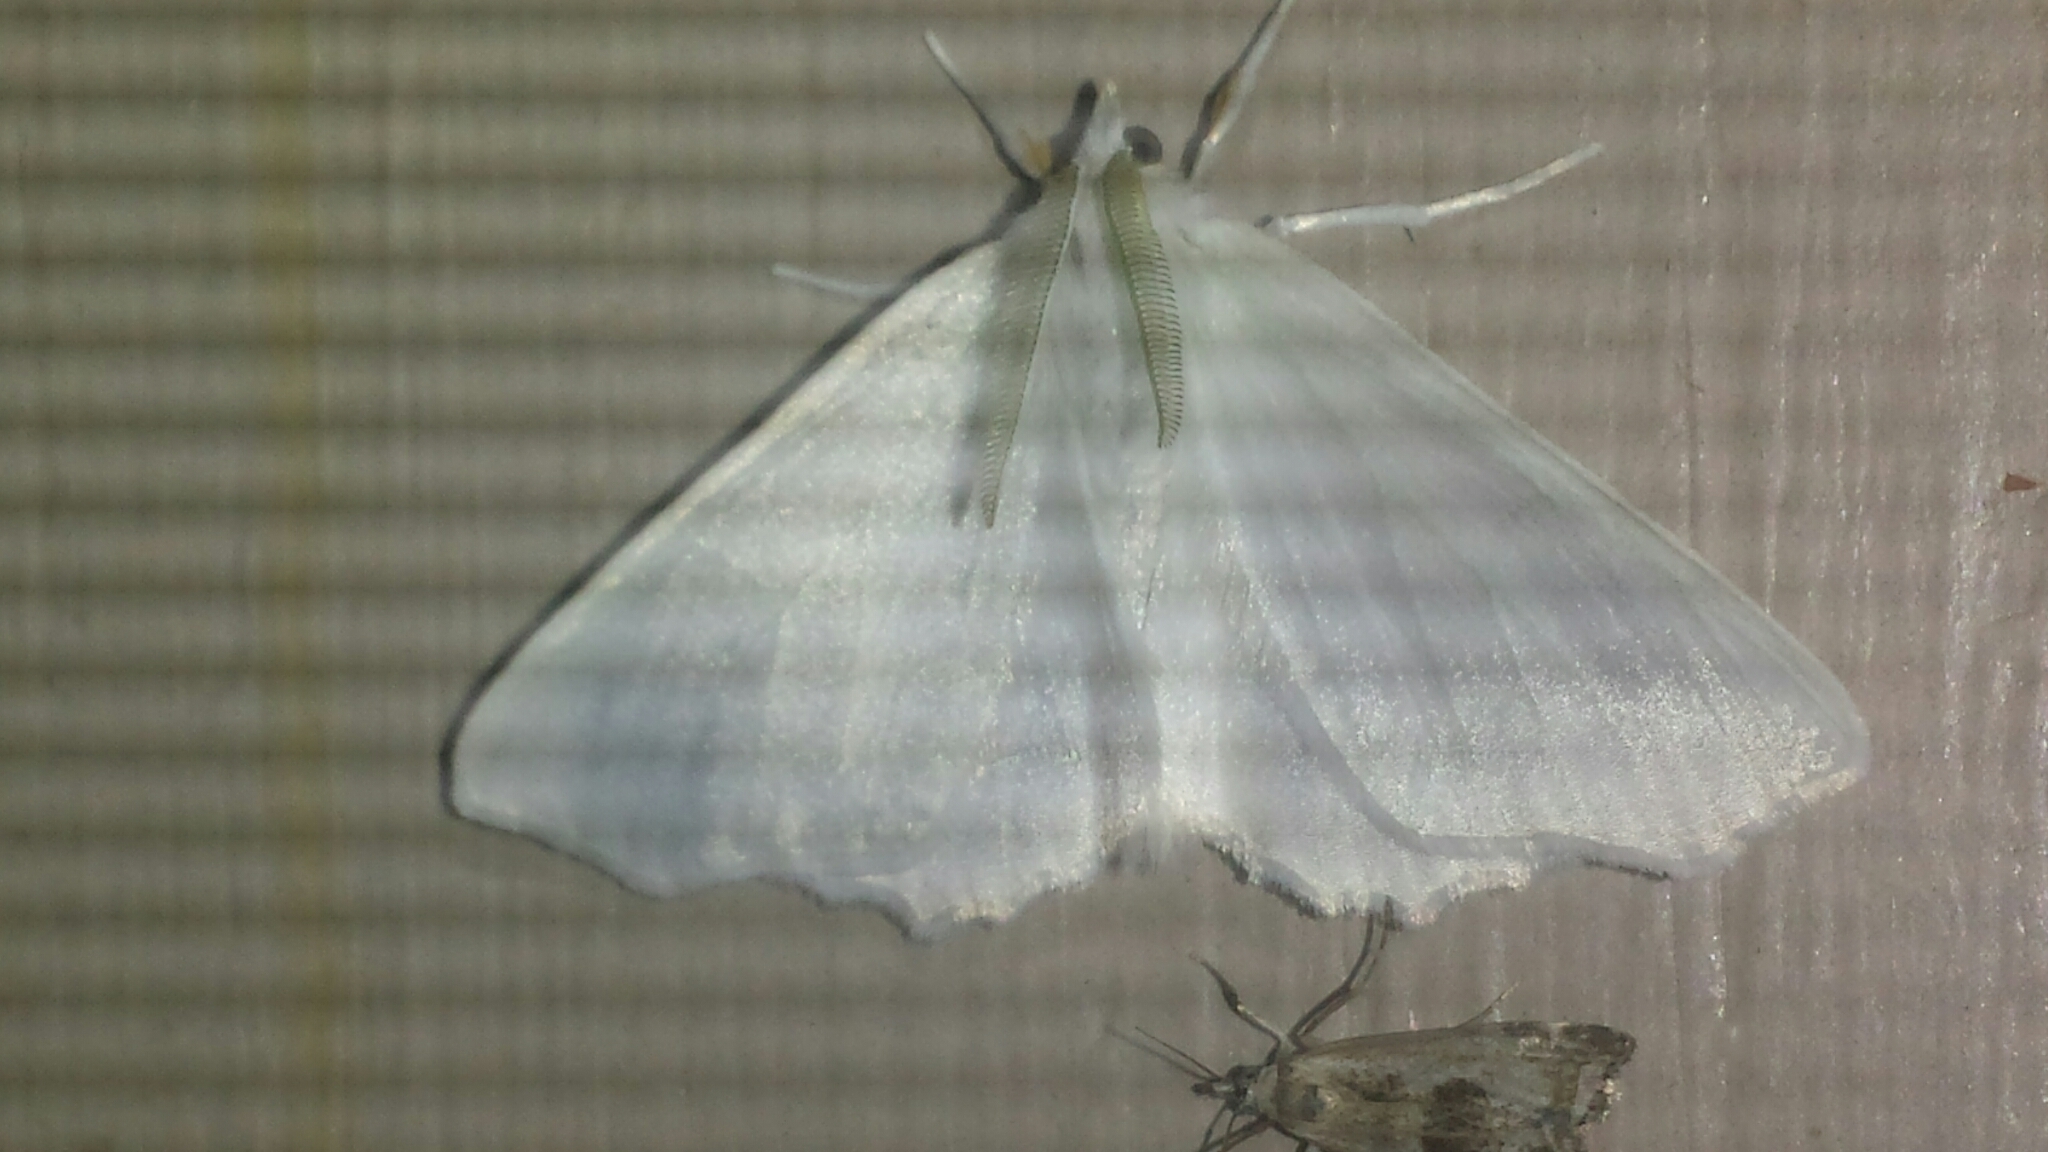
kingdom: Animalia
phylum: Arthropoda
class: Insecta
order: Lepidoptera
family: Geometridae
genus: Ennomos
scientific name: Ennomos subsignaria
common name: Elm spanworm
